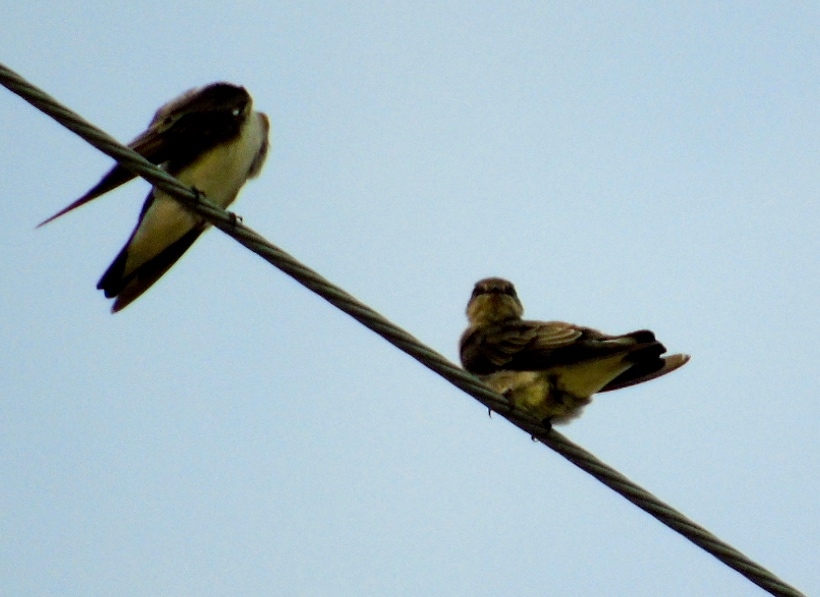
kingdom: Animalia
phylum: Chordata
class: Aves
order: Passeriformes
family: Hirundinidae
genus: Progne
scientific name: Progne chalybea
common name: Grey-breasted martin
